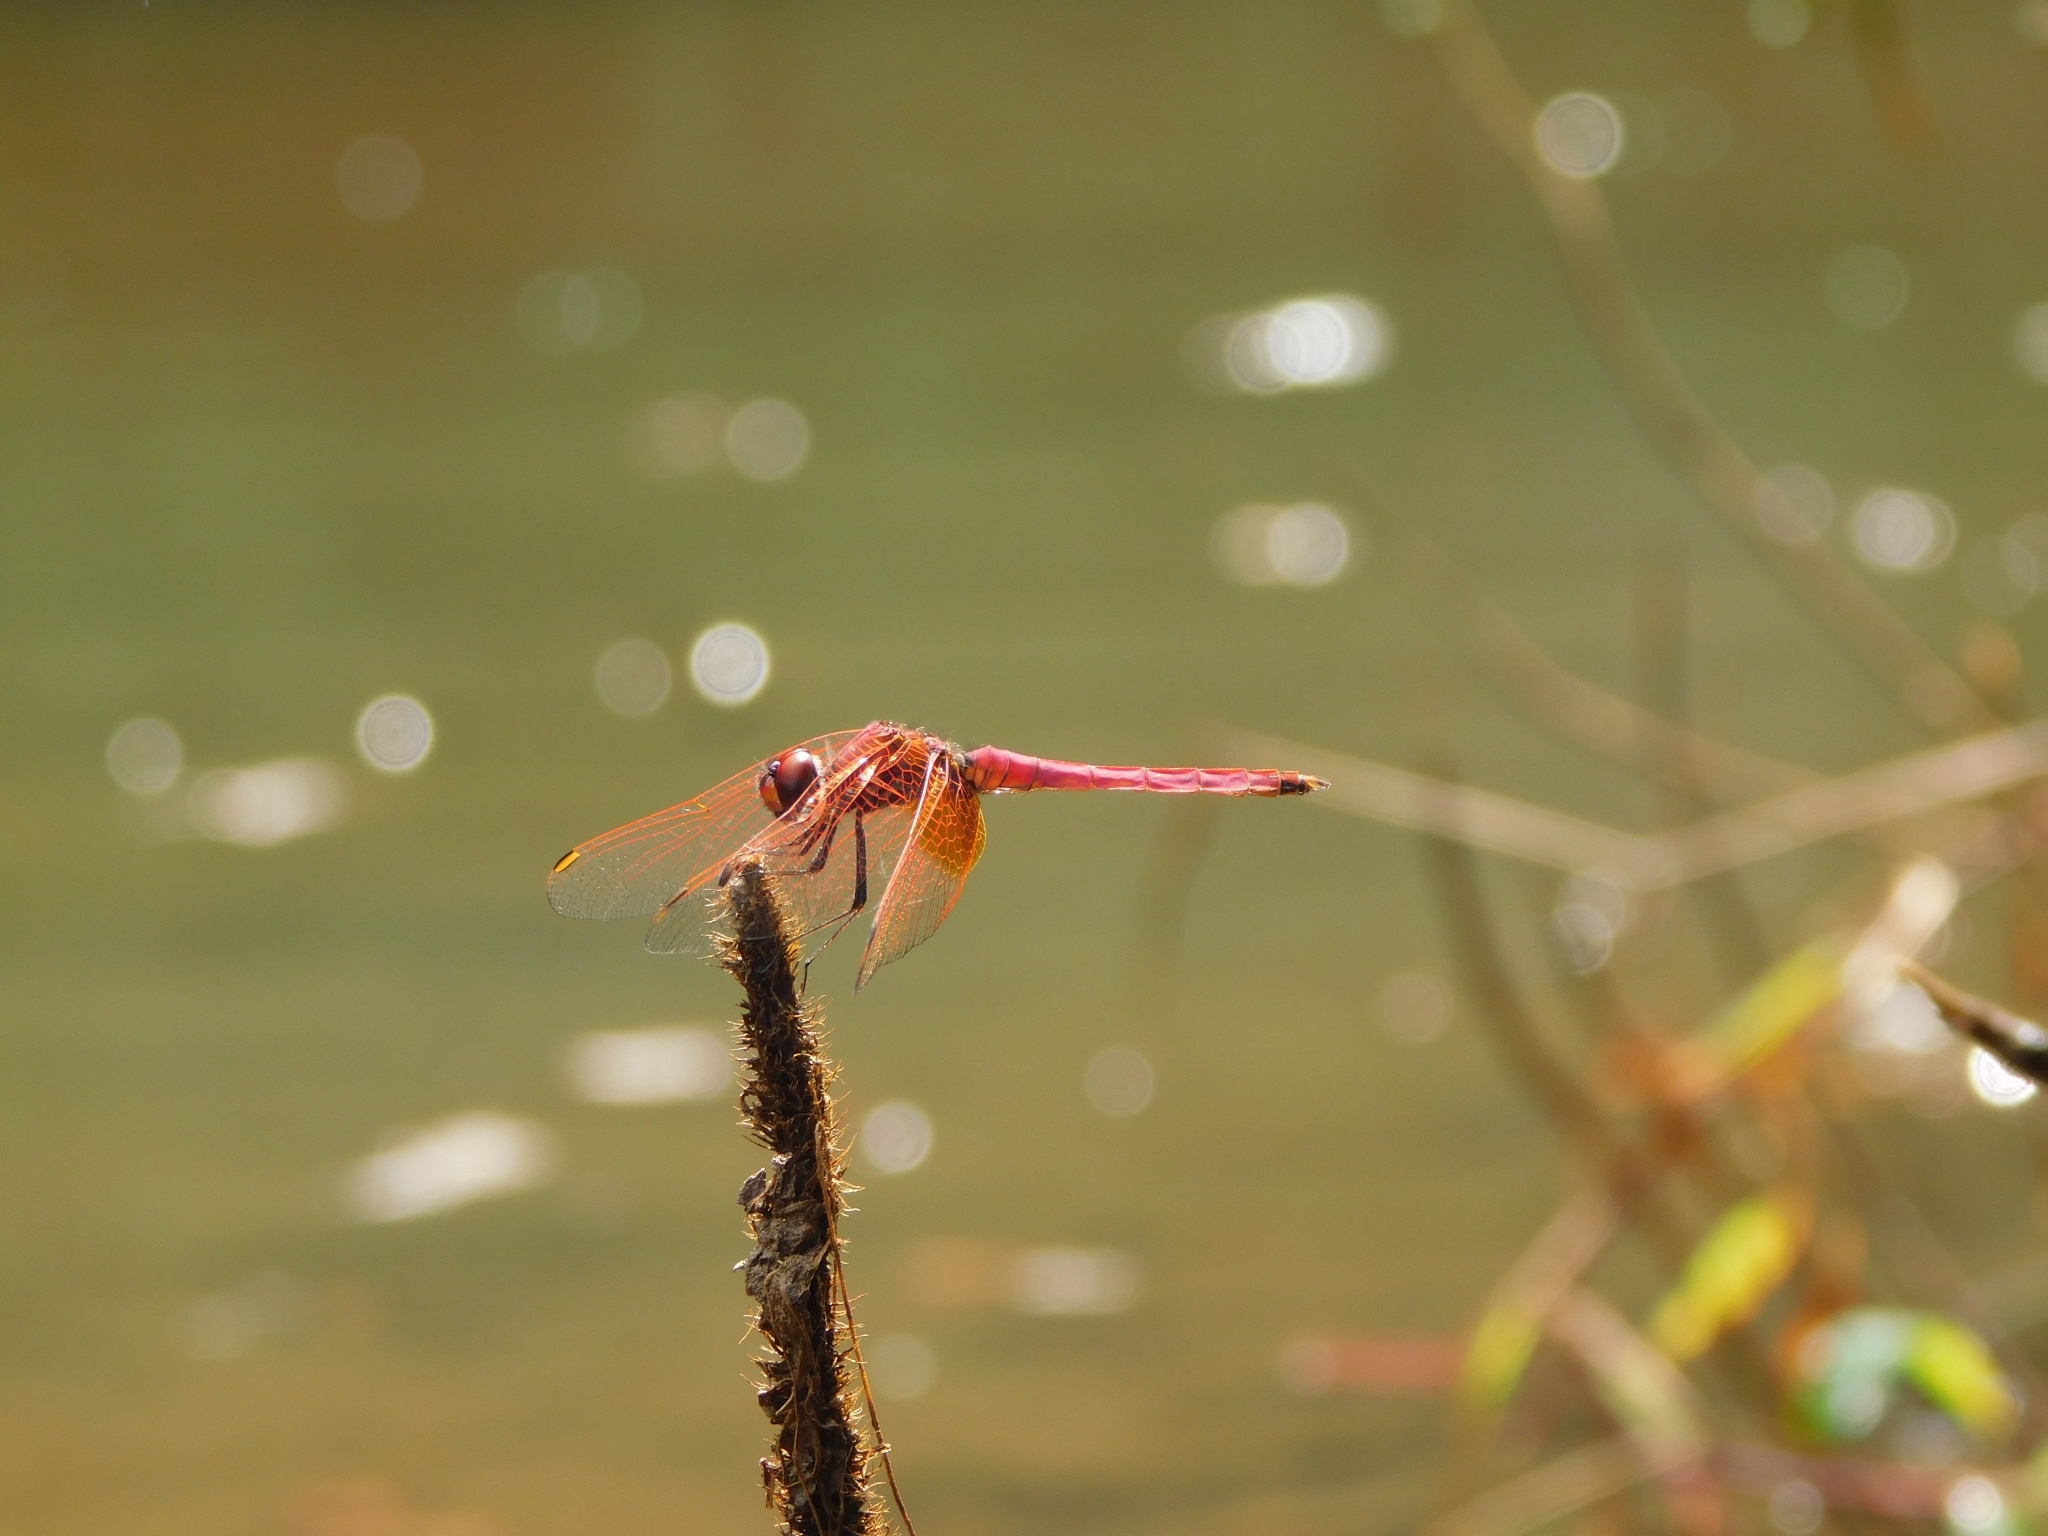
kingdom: Animalia
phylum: Arthropoda
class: Insecta
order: Odonata
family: Libellulidae
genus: Trithemis
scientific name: Trithemis aurora
